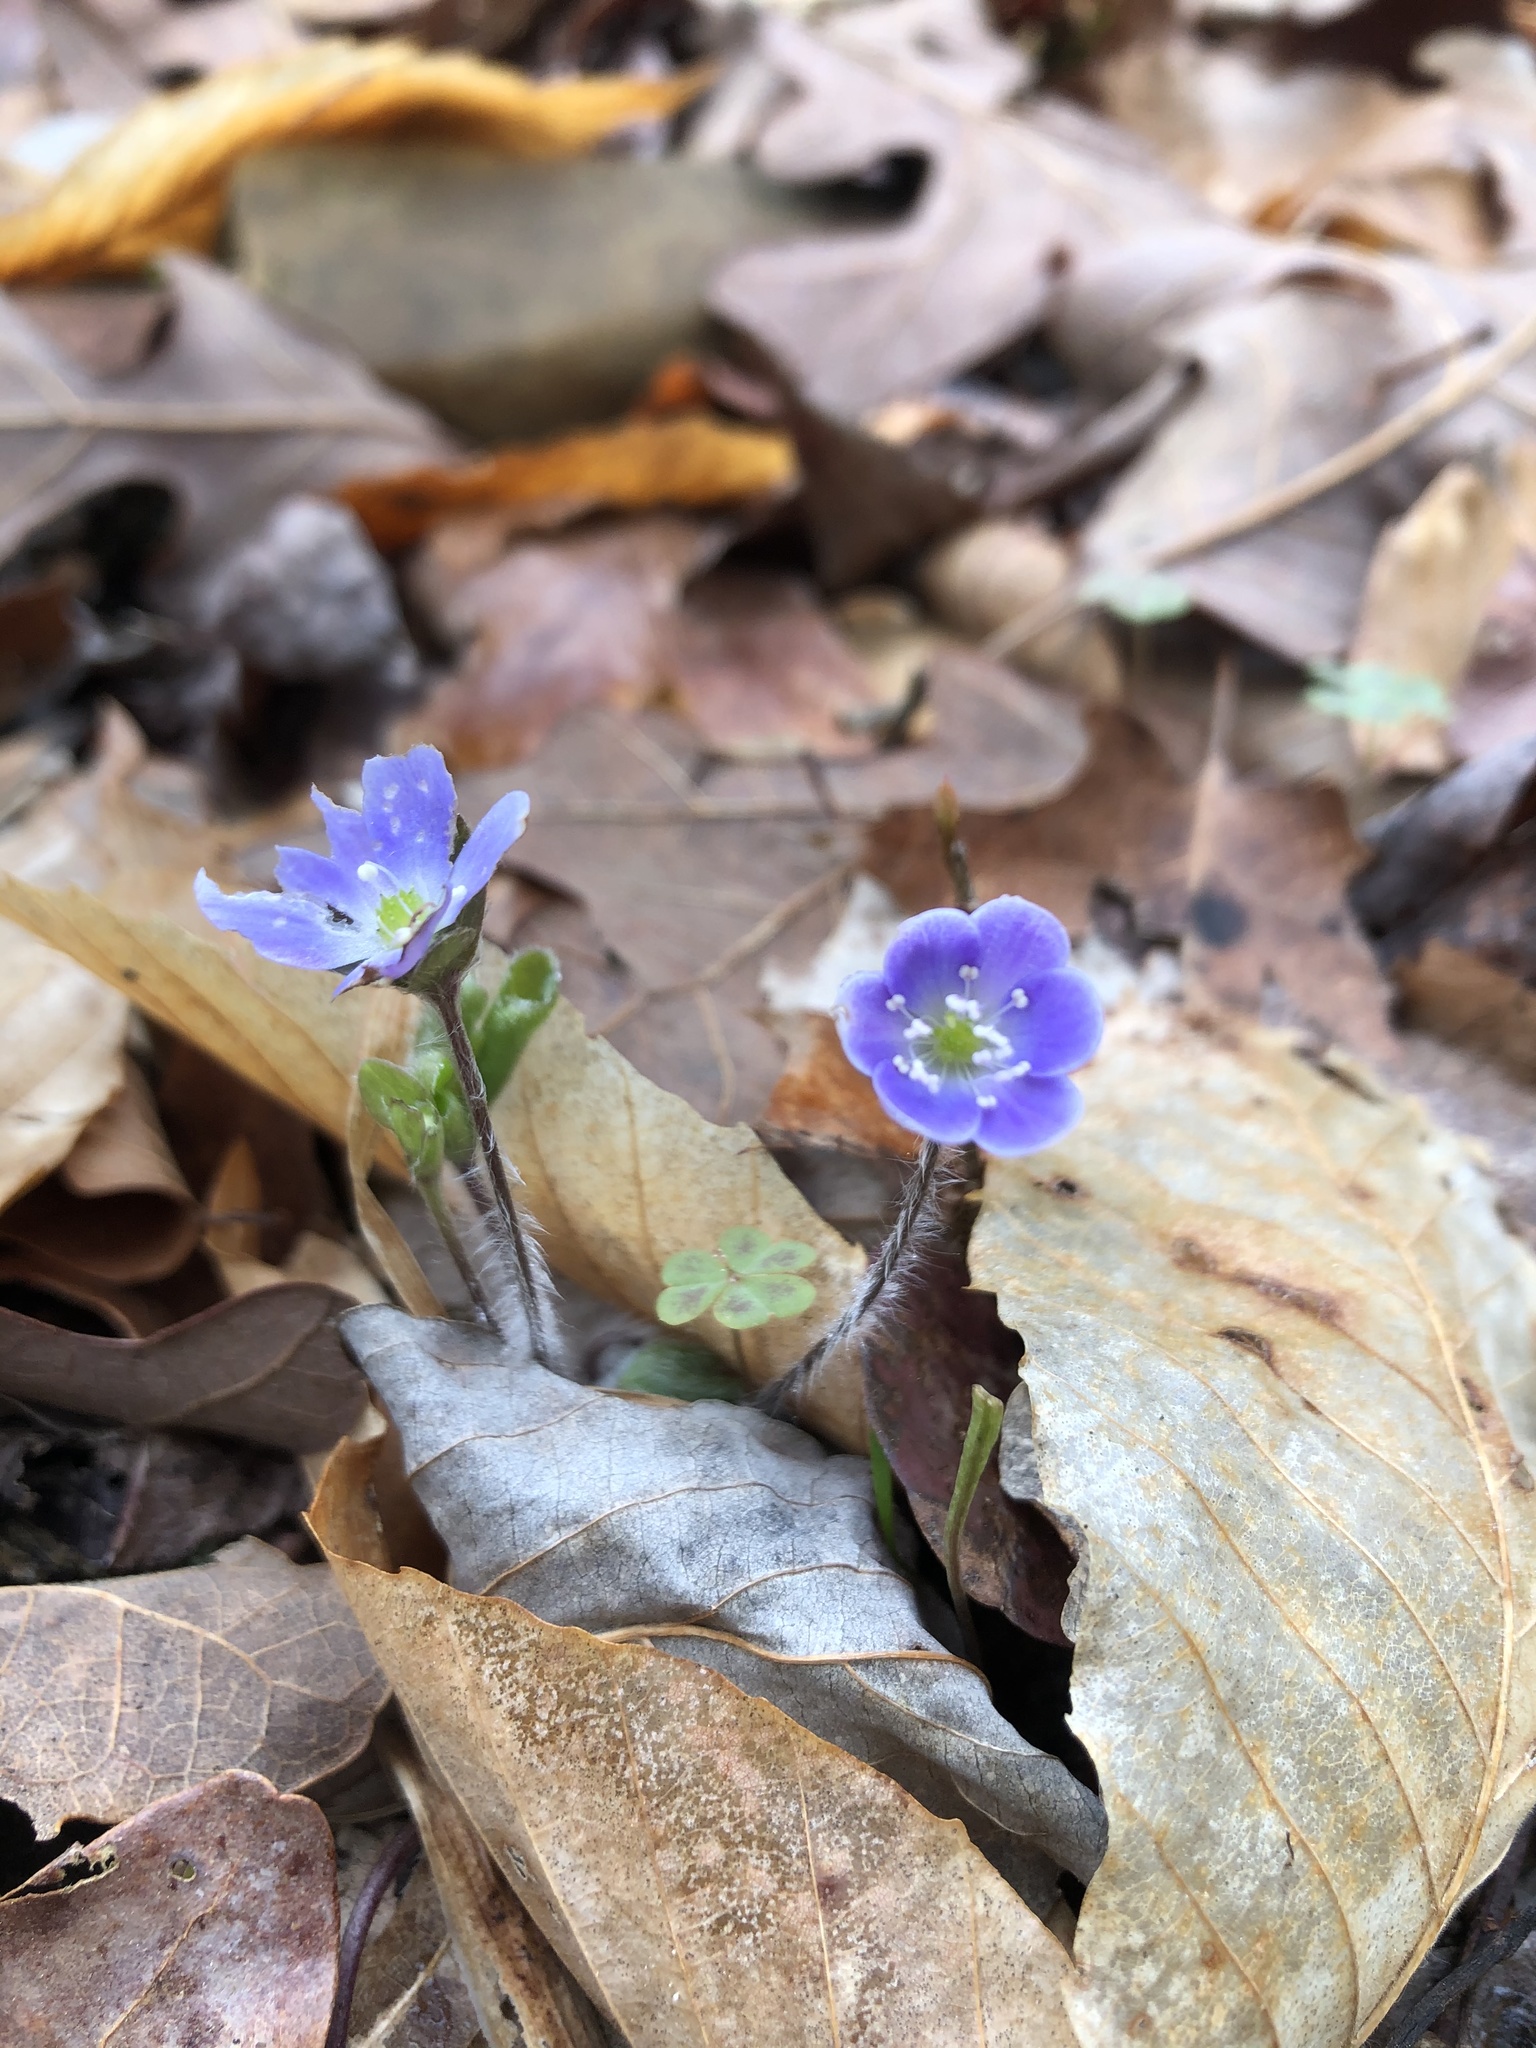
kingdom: Plantae
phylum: Tracheophyta
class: Magnoliopsida
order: Ranunculales
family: Ranunculaceae
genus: Hepatica
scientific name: Hepatica americana
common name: American hepatica
